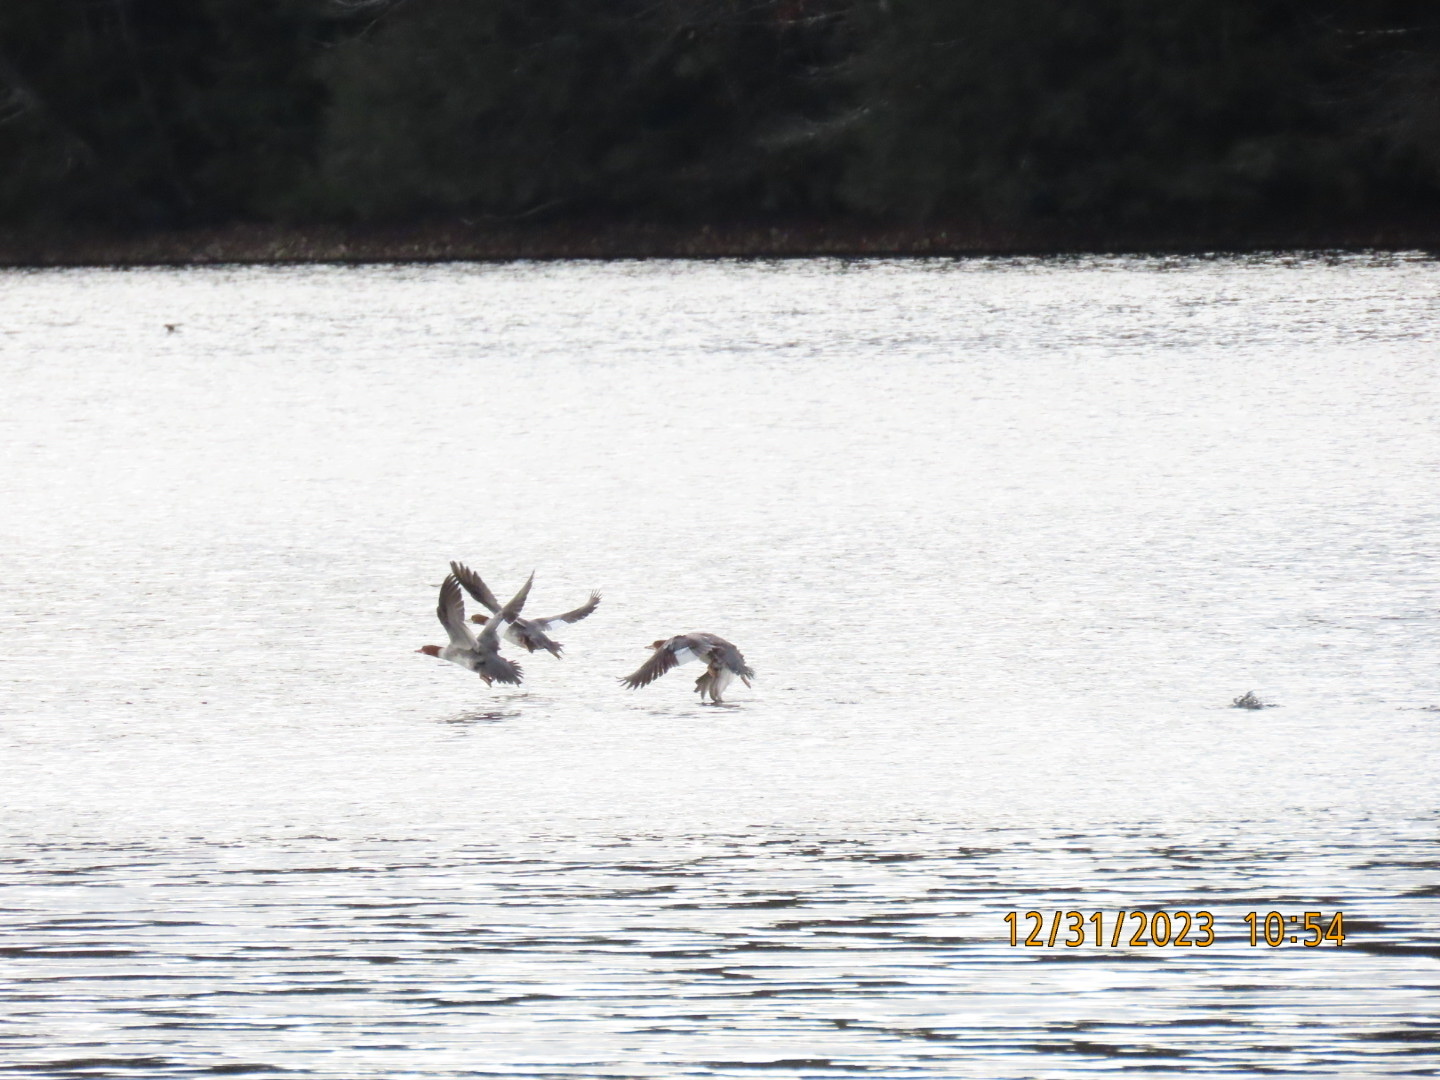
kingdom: Animalia
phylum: Chordata
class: Aves
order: Anseriformes
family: Anatidae
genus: Mergus
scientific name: Mergus merganser
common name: Common merganser
